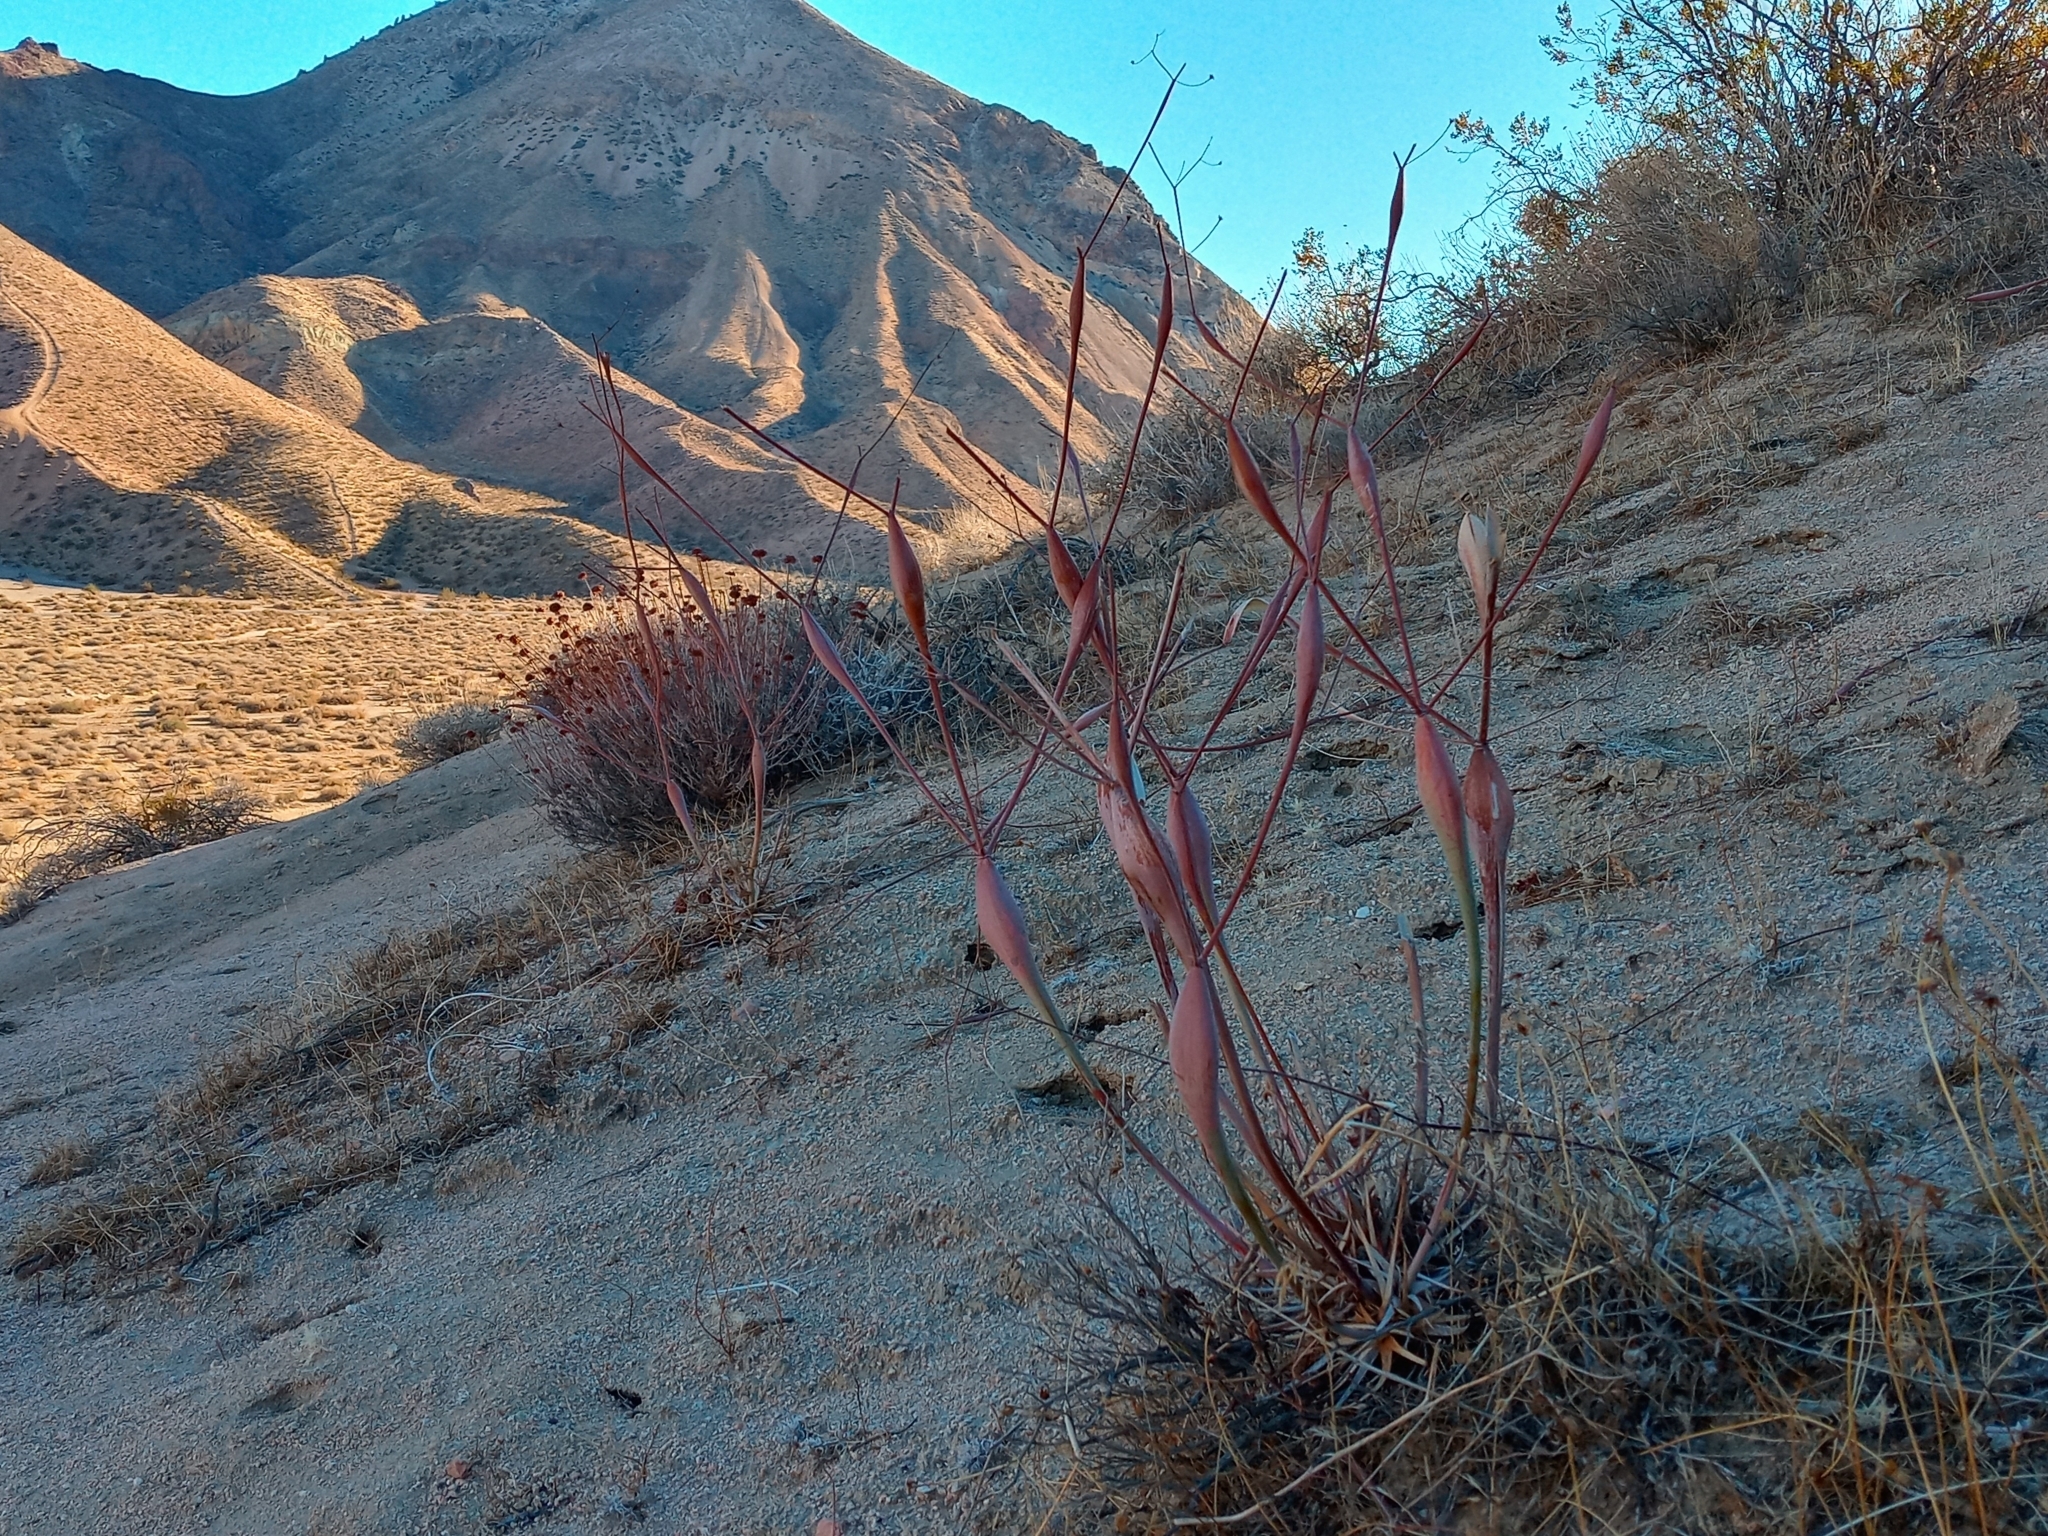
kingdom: Plantae
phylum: Tracheophyta
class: Magnoliopsida
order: Caryophyllales
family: Polygonaceae
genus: Eriogonum
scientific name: Eriogonum inflatum
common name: Desert trumpet
